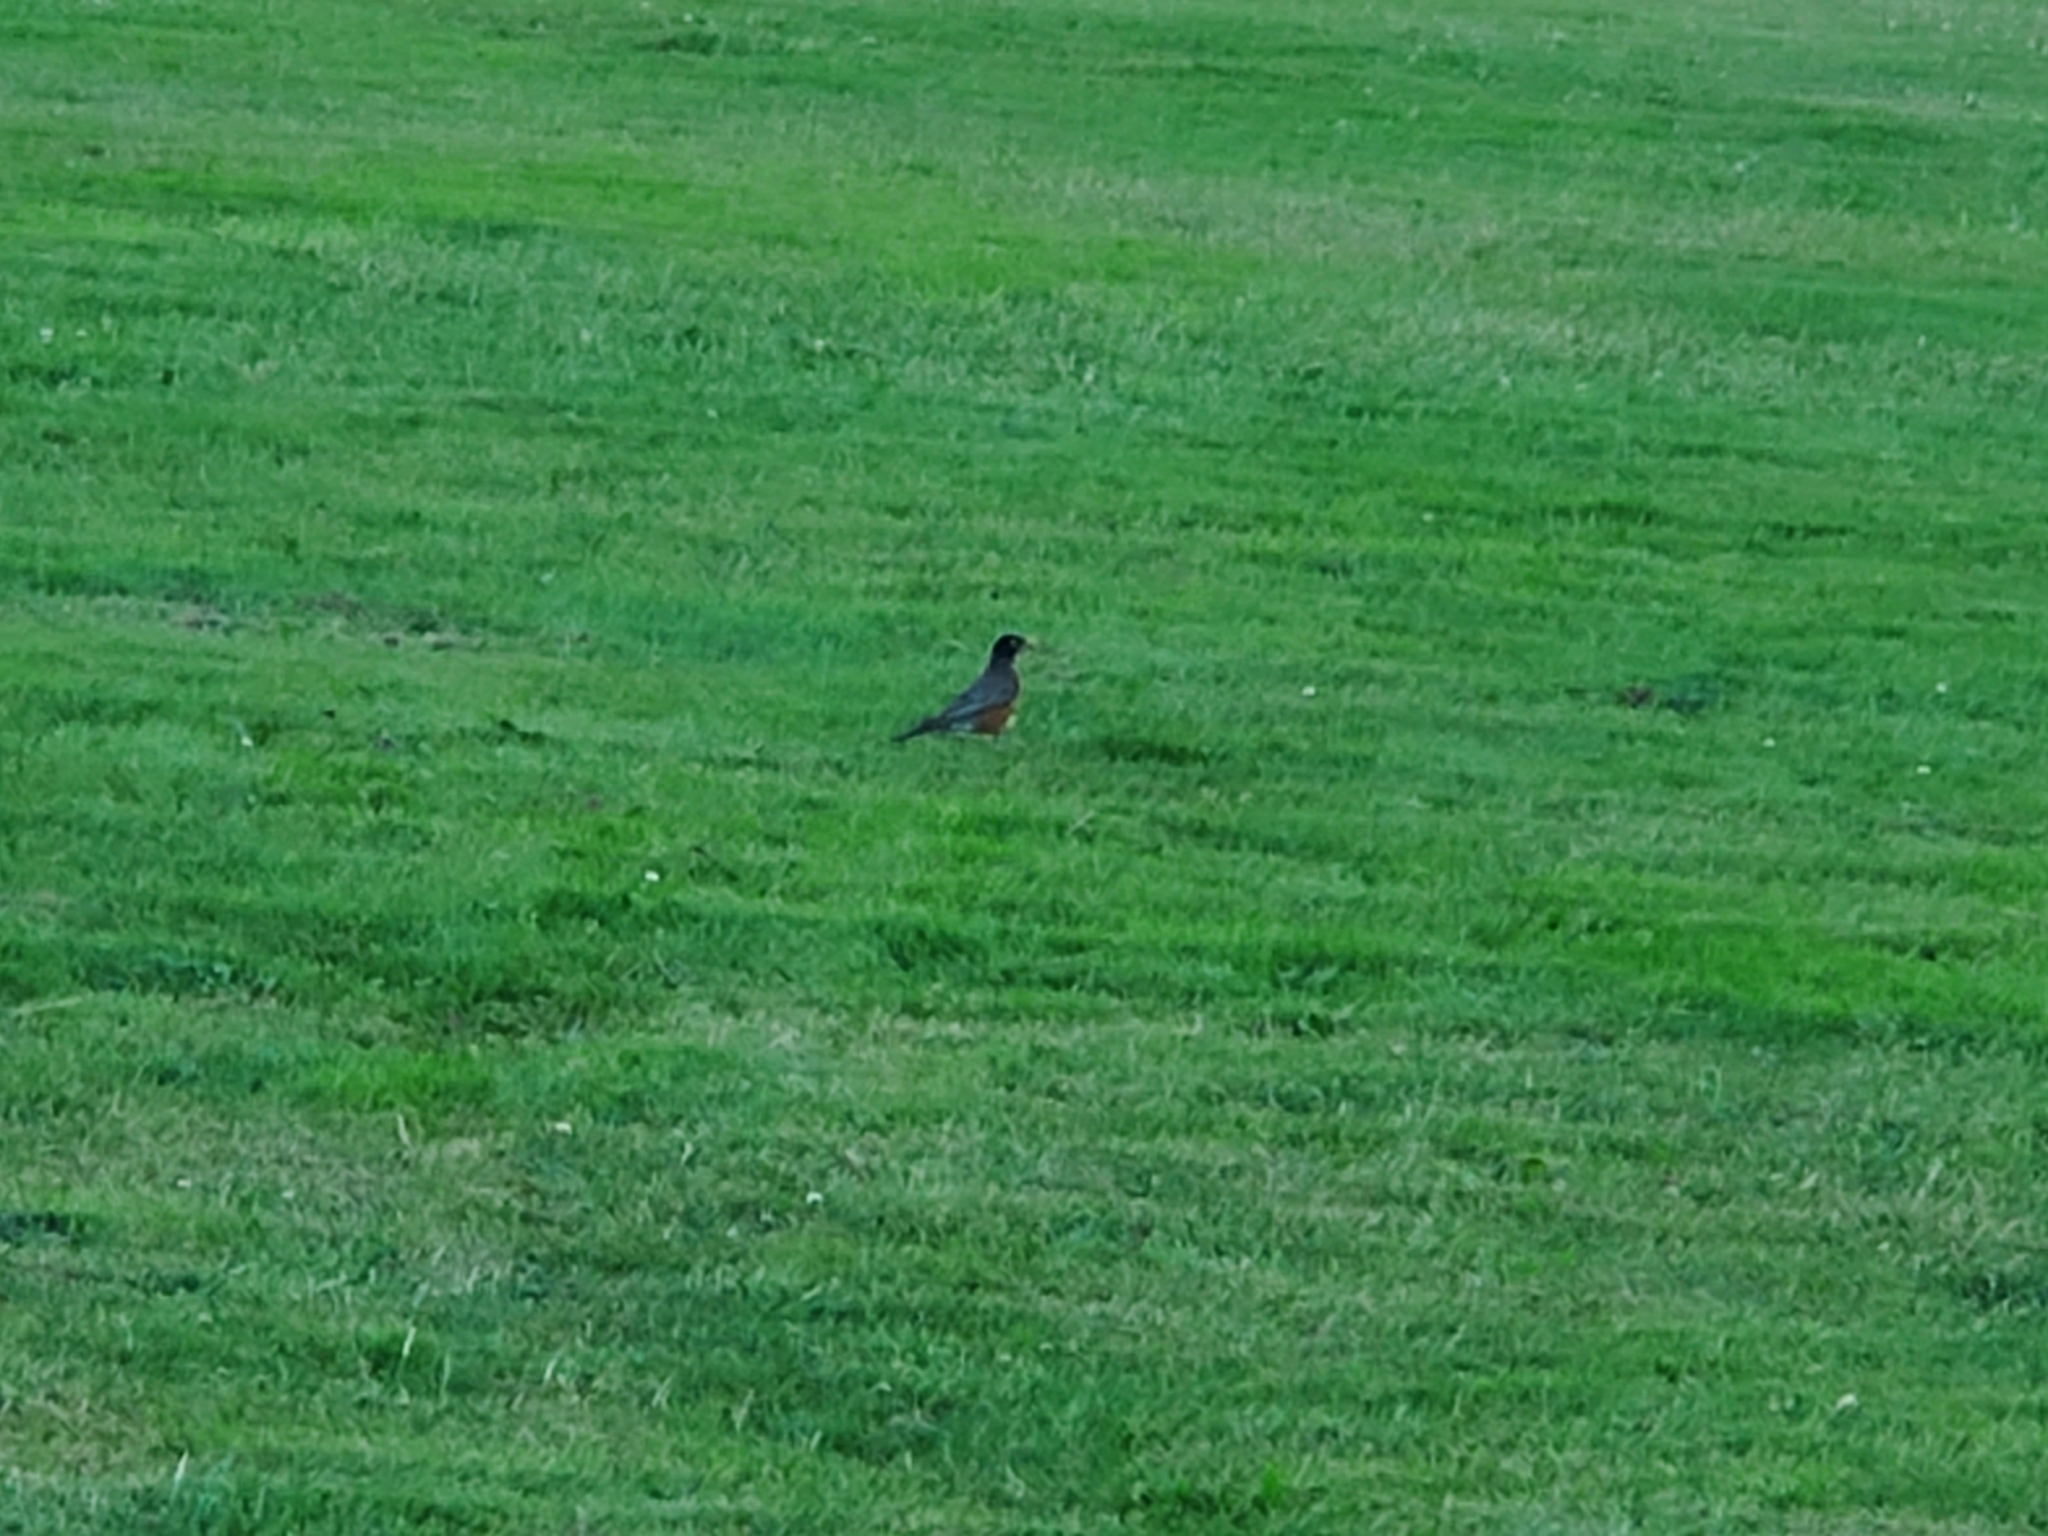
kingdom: Animalia
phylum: Chordata
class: Aves
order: Passeriformes
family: Turdidae
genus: Turdus
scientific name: Turdus migratorius
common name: American robin
